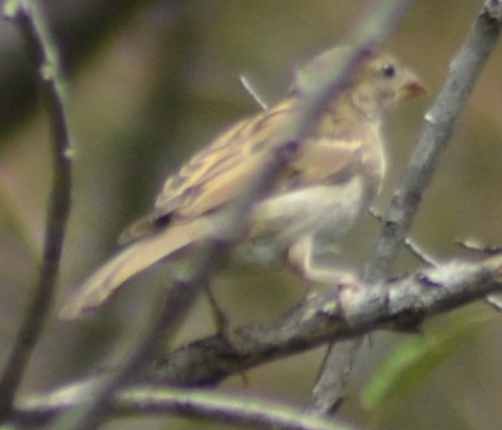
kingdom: Animalia
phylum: Chordata
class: Aves
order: Passeriformes
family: Passeridae
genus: Passer
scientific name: Passer domesticus
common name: House sparrow
